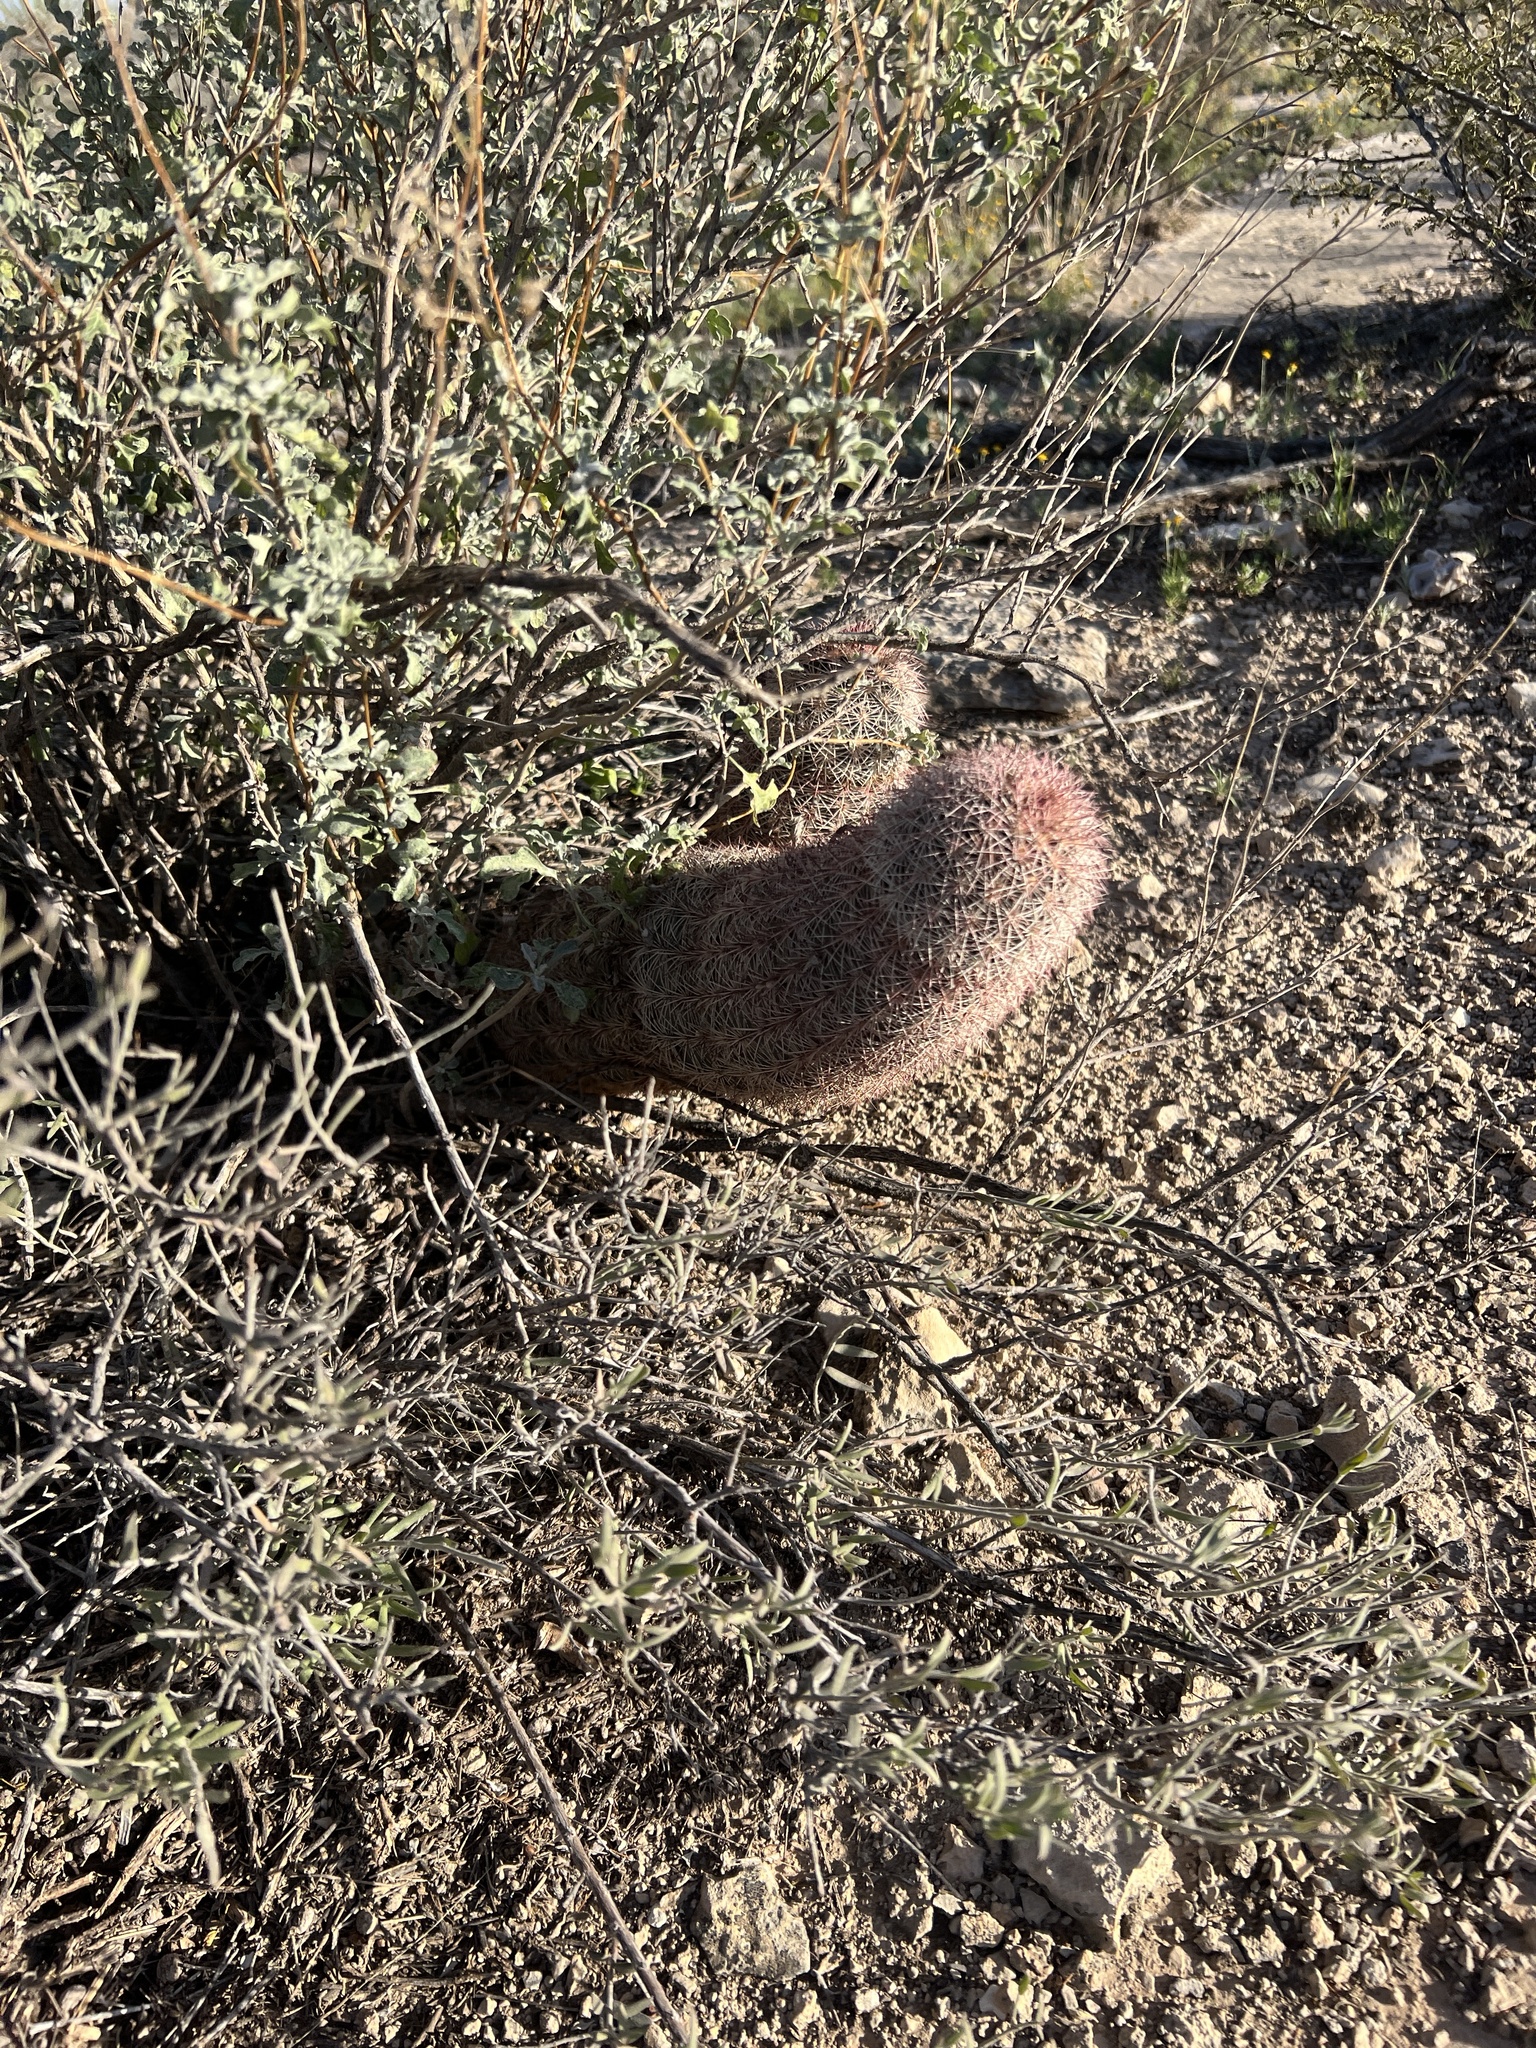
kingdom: Plantae
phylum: Tracheophyta
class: Magnoliopsida
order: Caryophyllales
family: Cactaceae
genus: Echinocereus
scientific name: Echinocereus dasyacanthus
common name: Spiny hedgehog cactus
